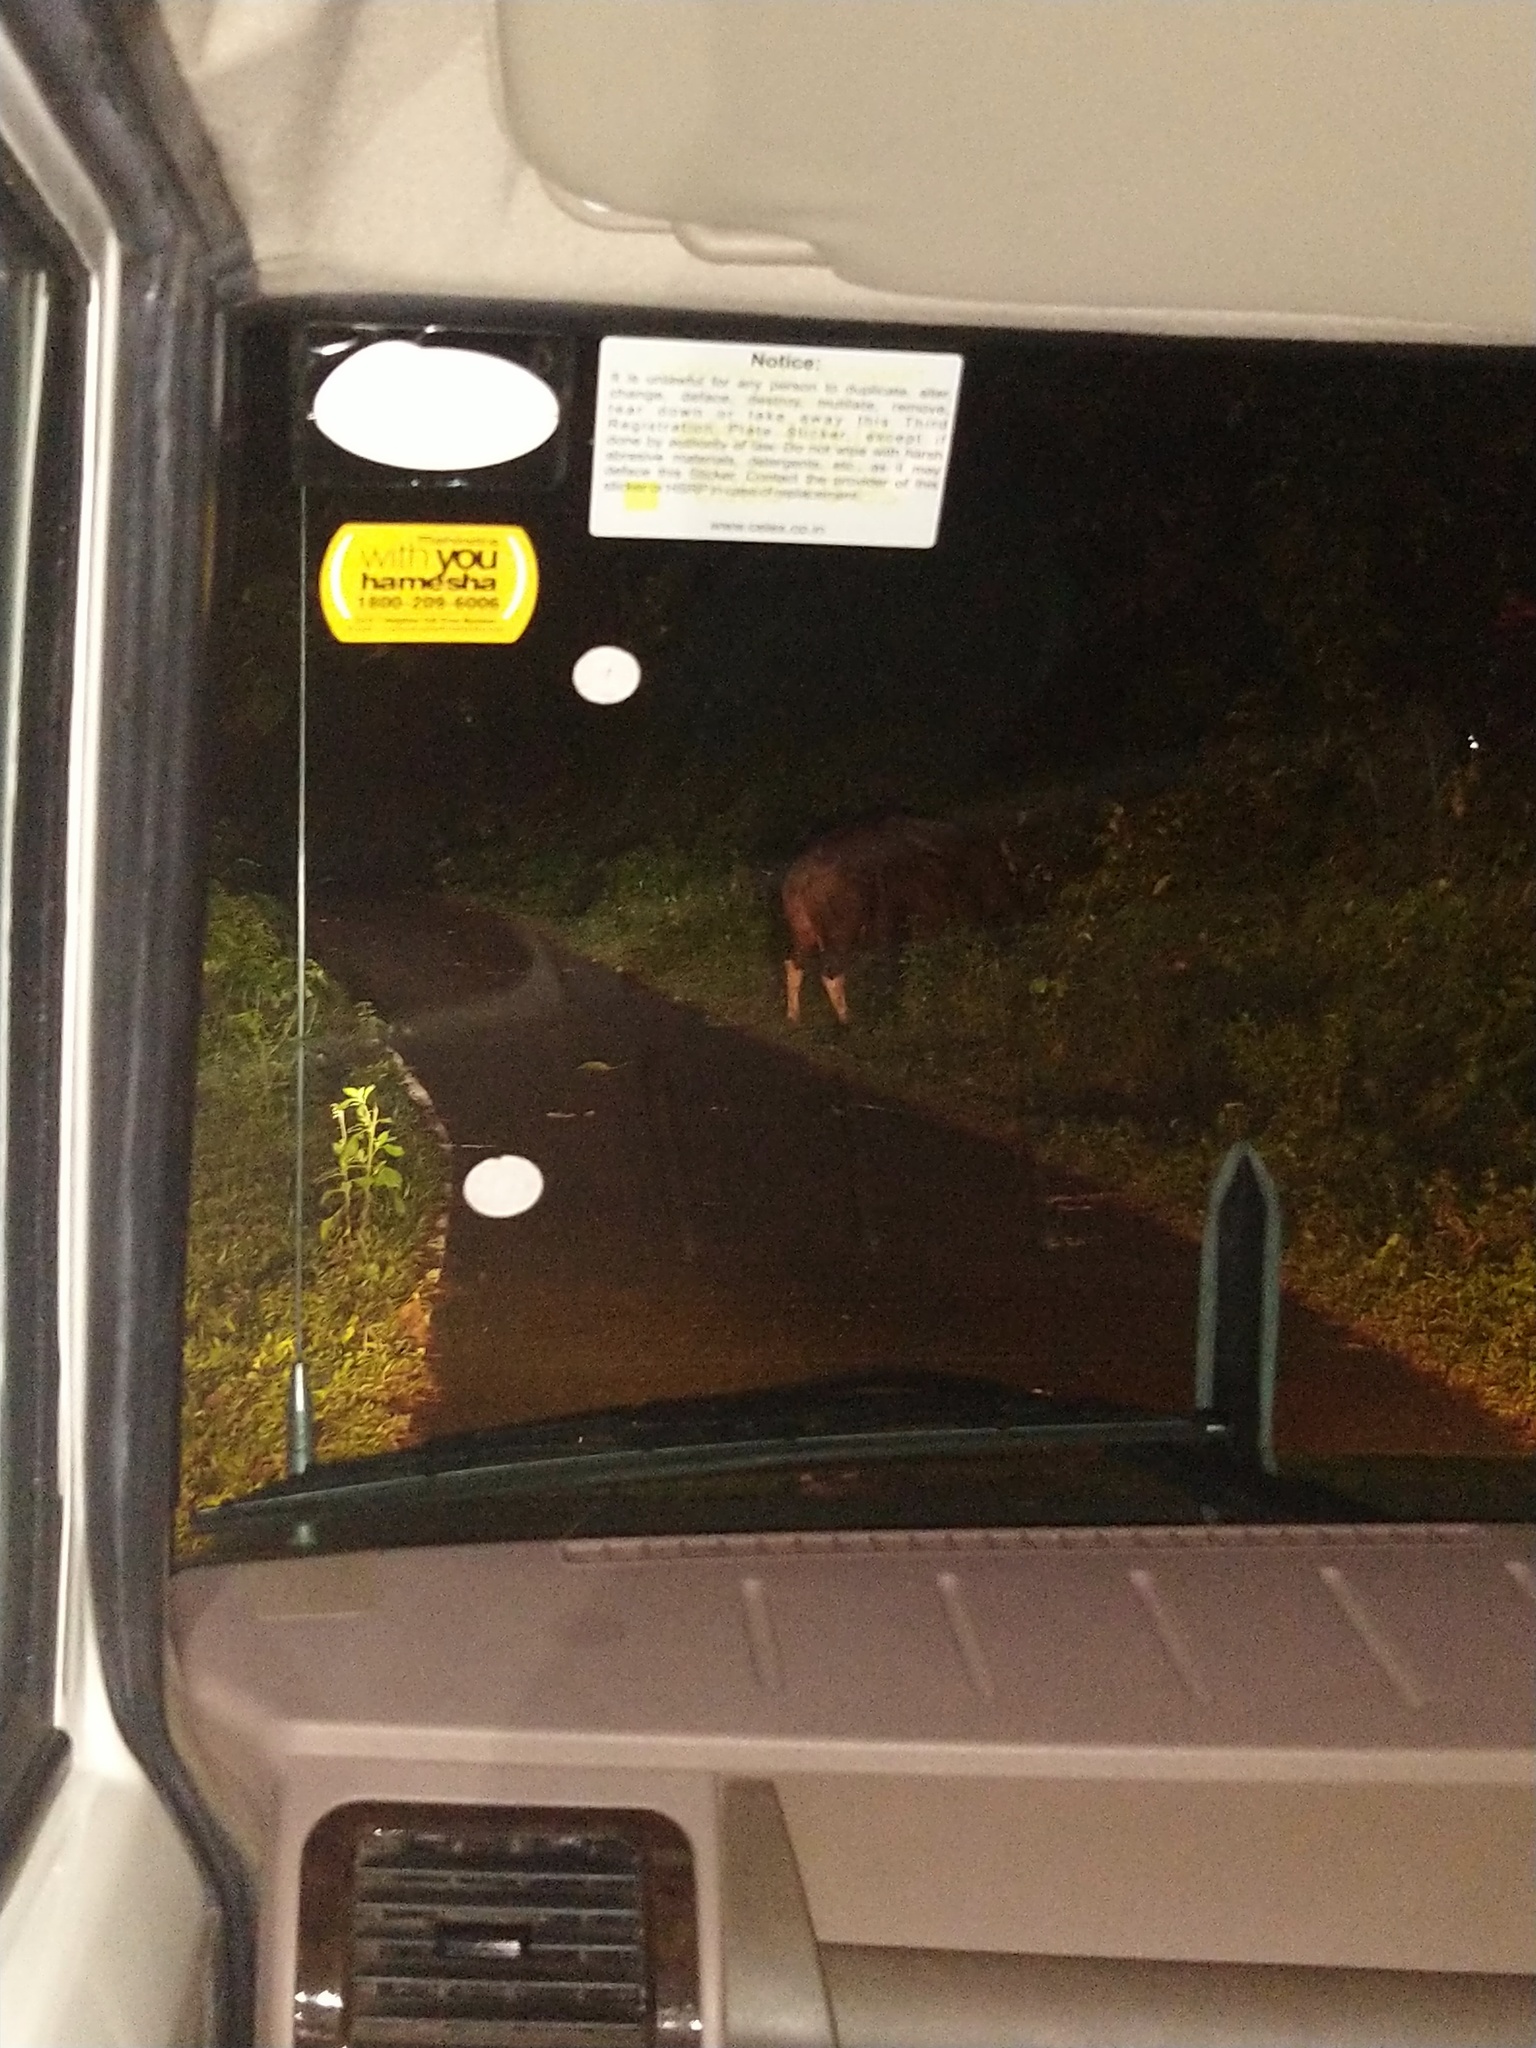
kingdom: Animalia
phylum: Chordata
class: Mammalia
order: Artiodactyla
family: Bovidae
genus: Bos
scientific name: Bos frontalis
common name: Gaur
